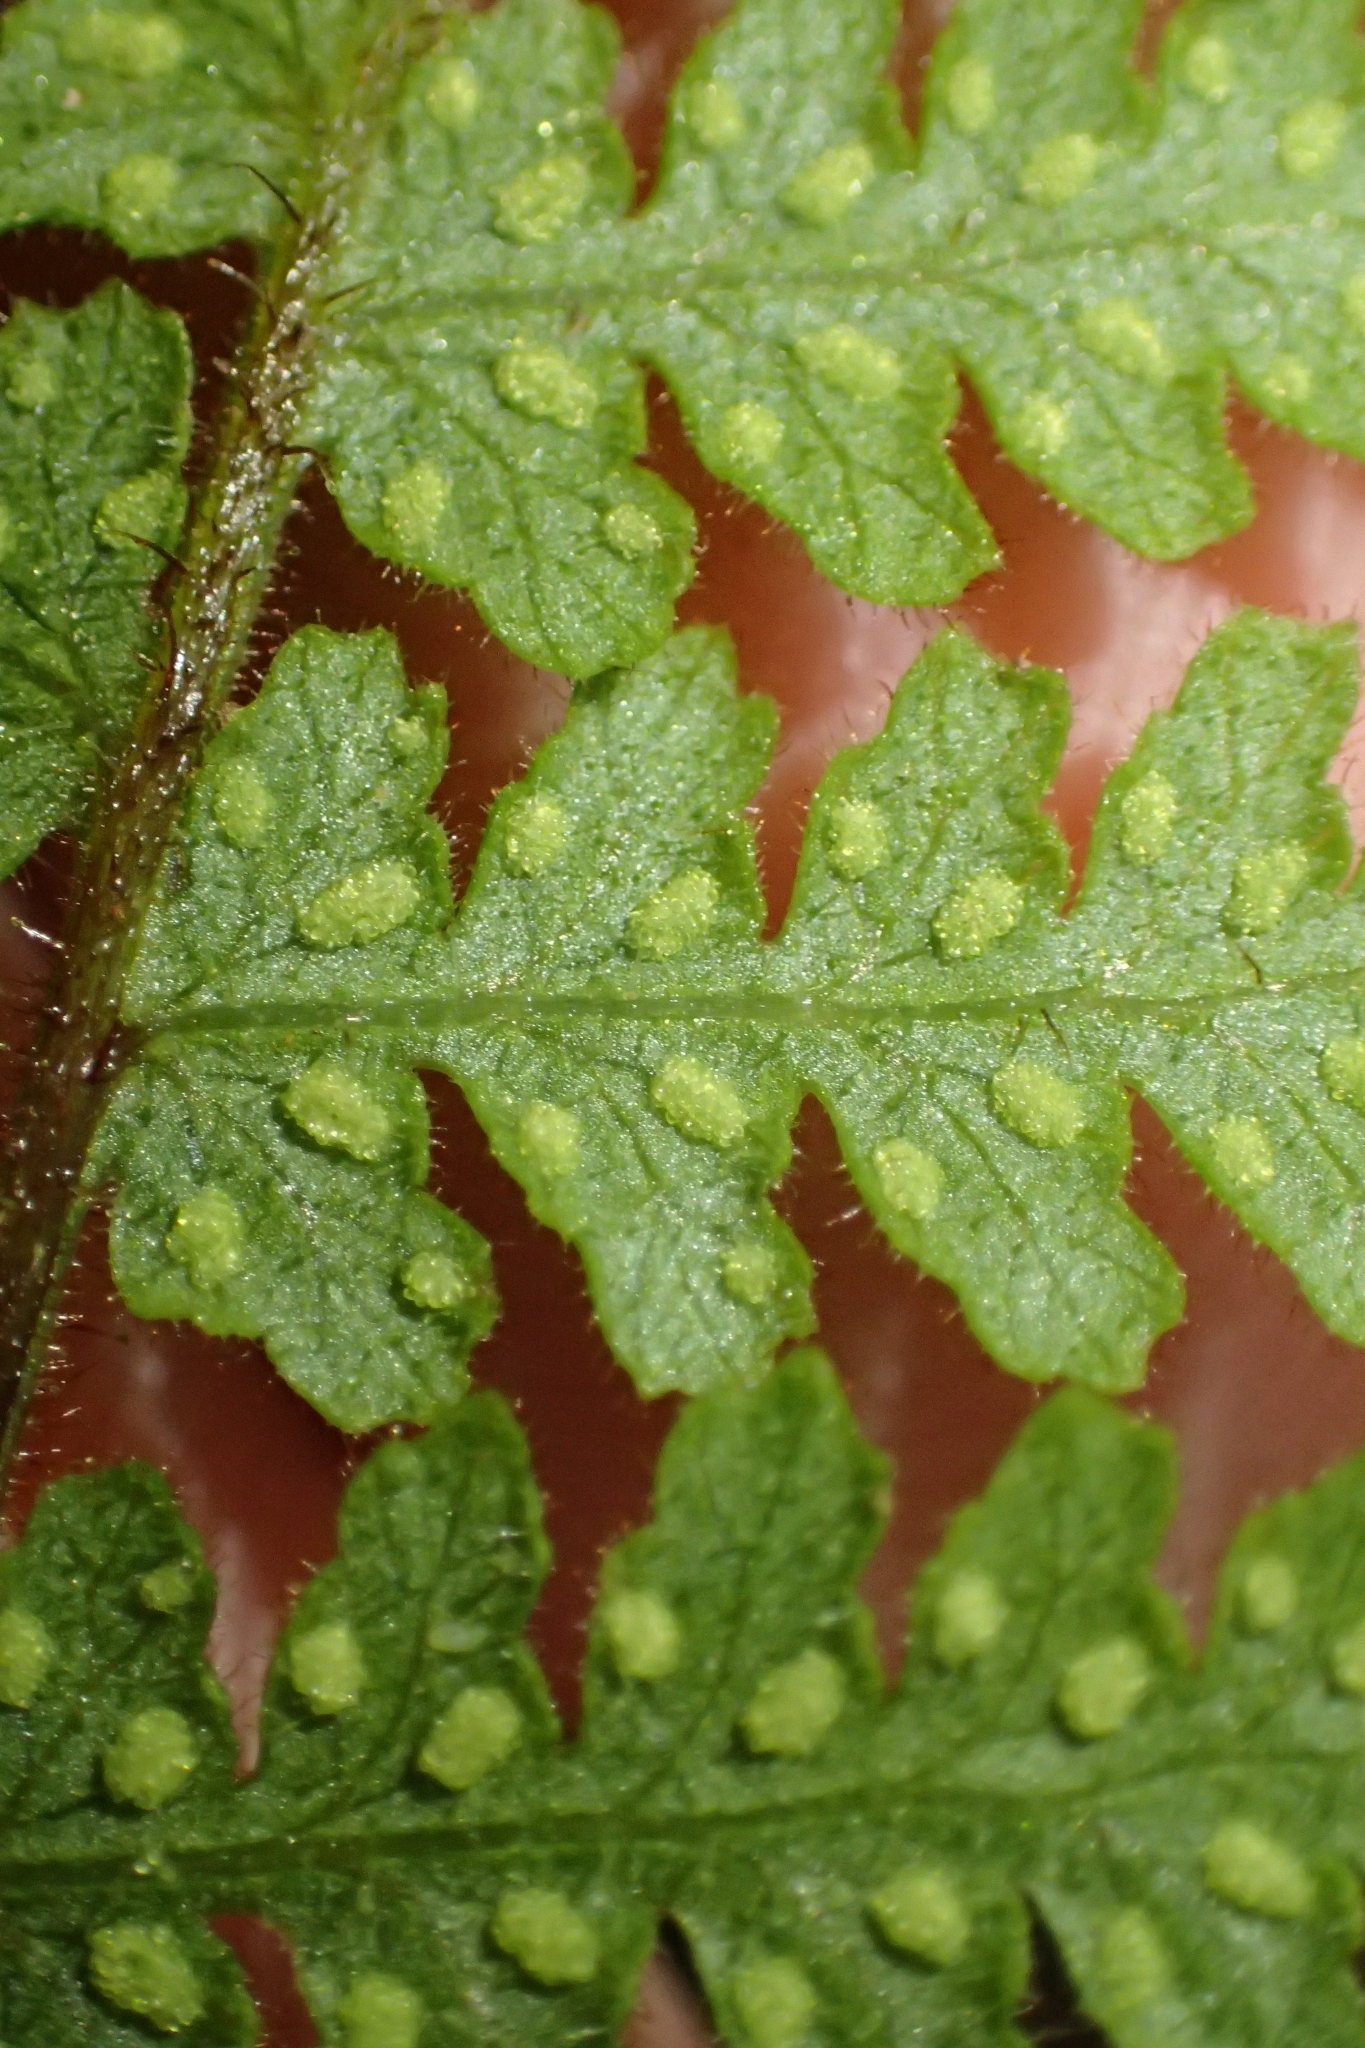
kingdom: Plantae
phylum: Tracheophyta
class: Polypodiopsida
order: Polypodiales
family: Dennstaedtiaceae
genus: Hypolepis
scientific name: Hypolepis rugosula
